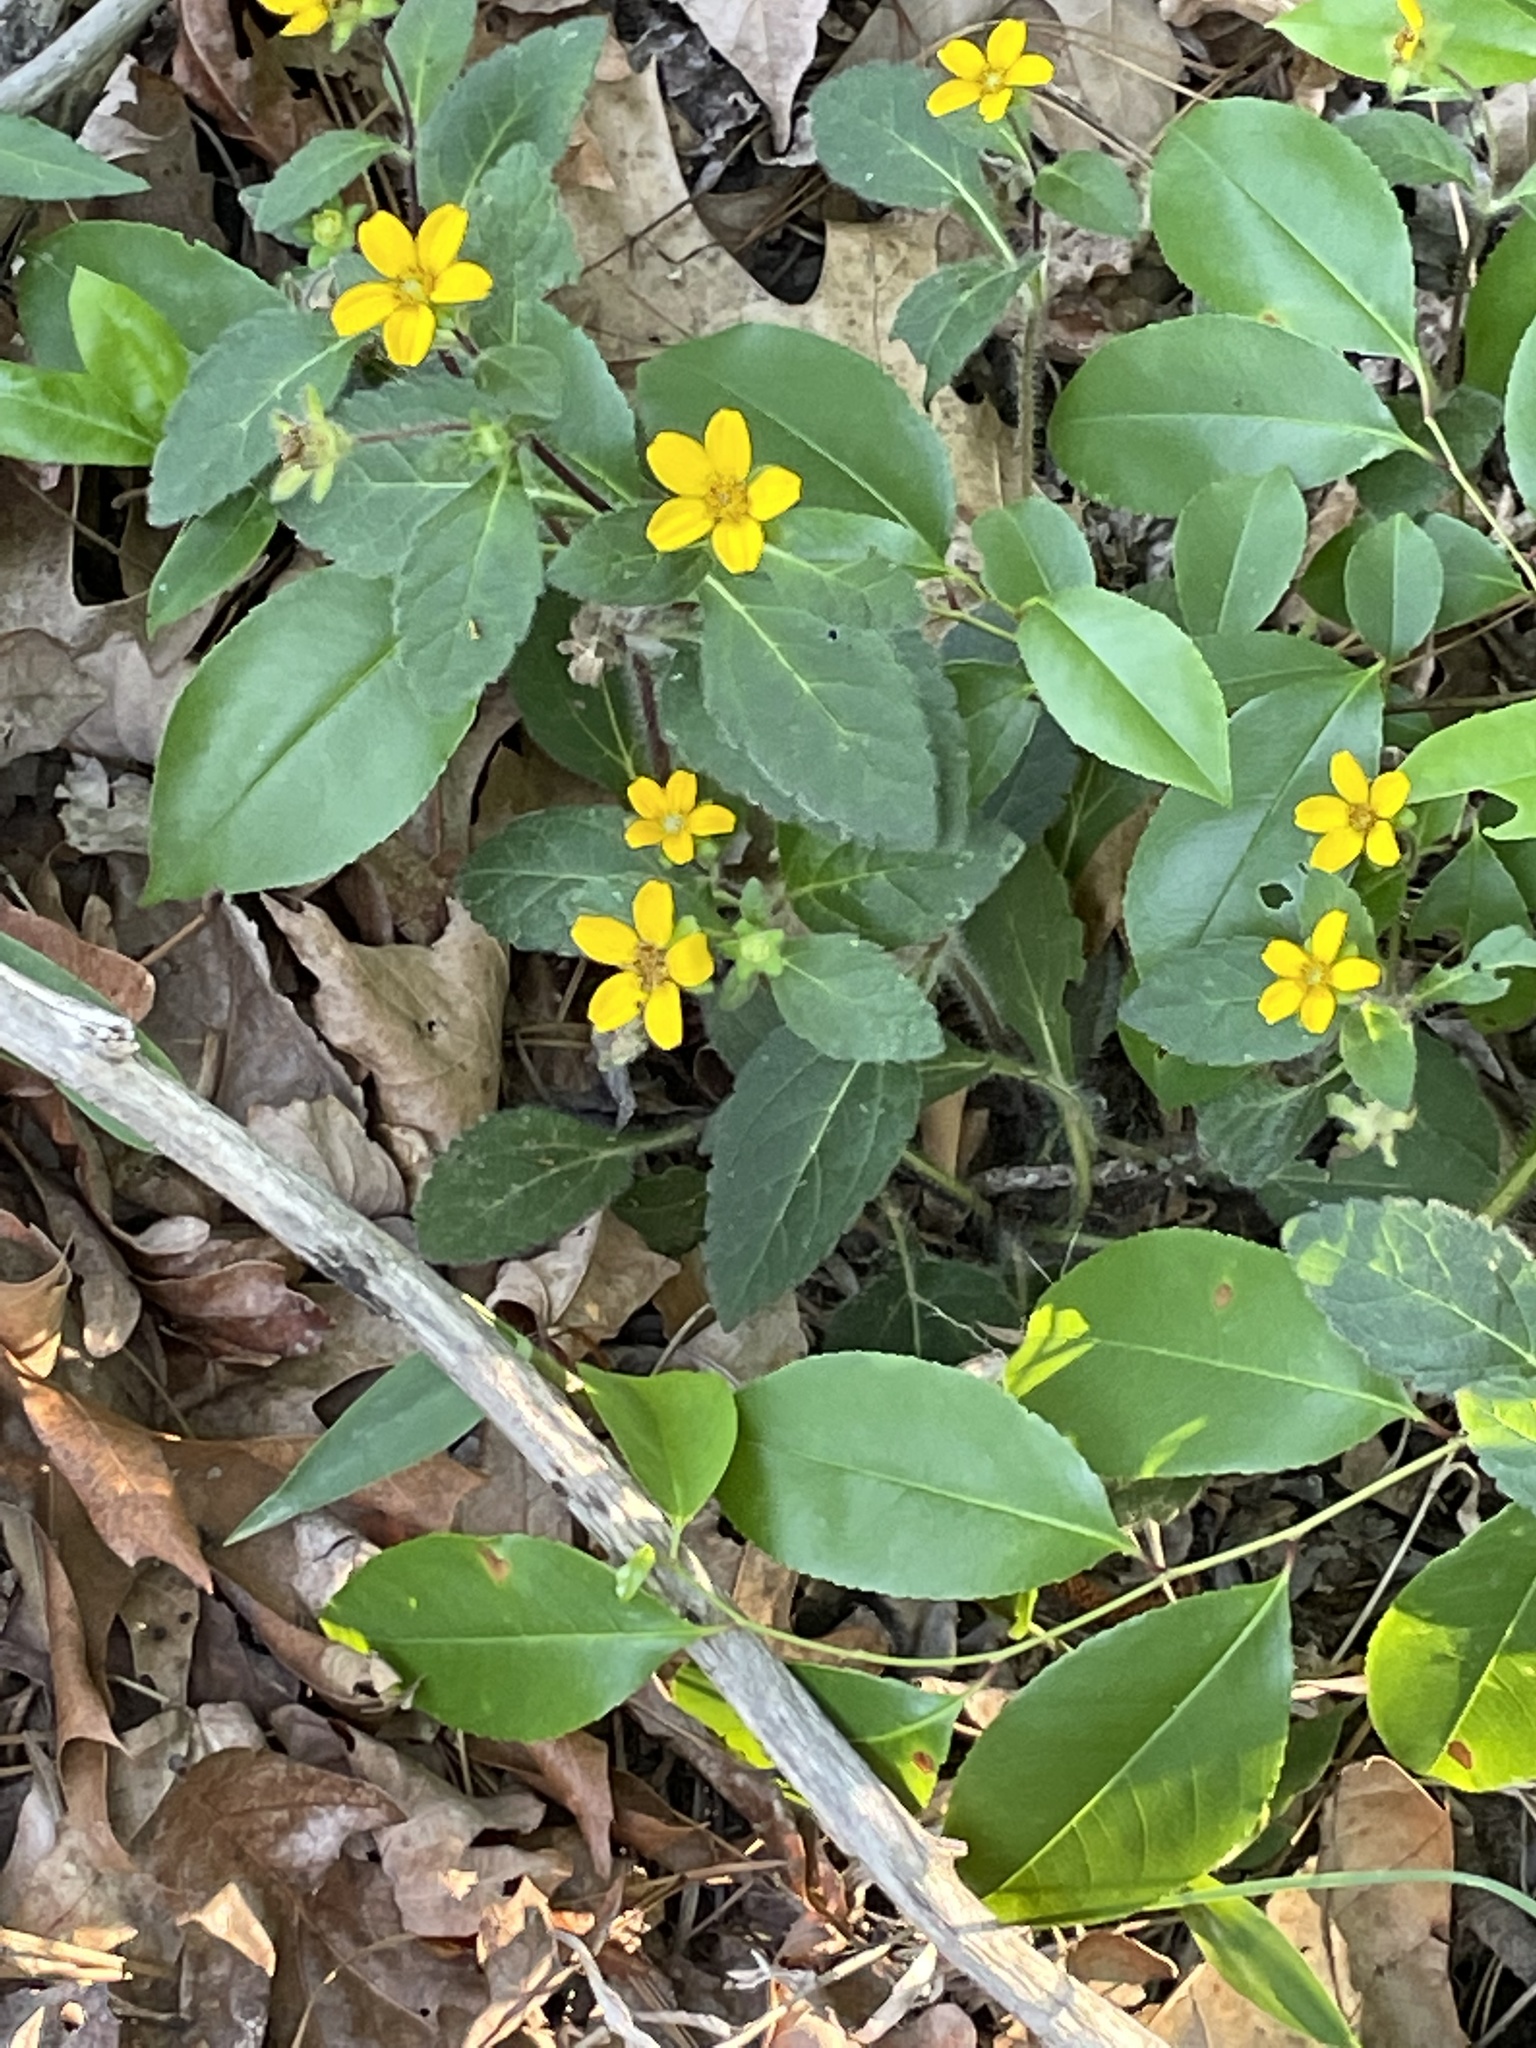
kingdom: Plantae
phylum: Tracheophyta
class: Magnoliopsida
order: Asterales
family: Asteraceae
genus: Chrysogonum
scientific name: Chrysogonum virginianum
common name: Golden-knee
